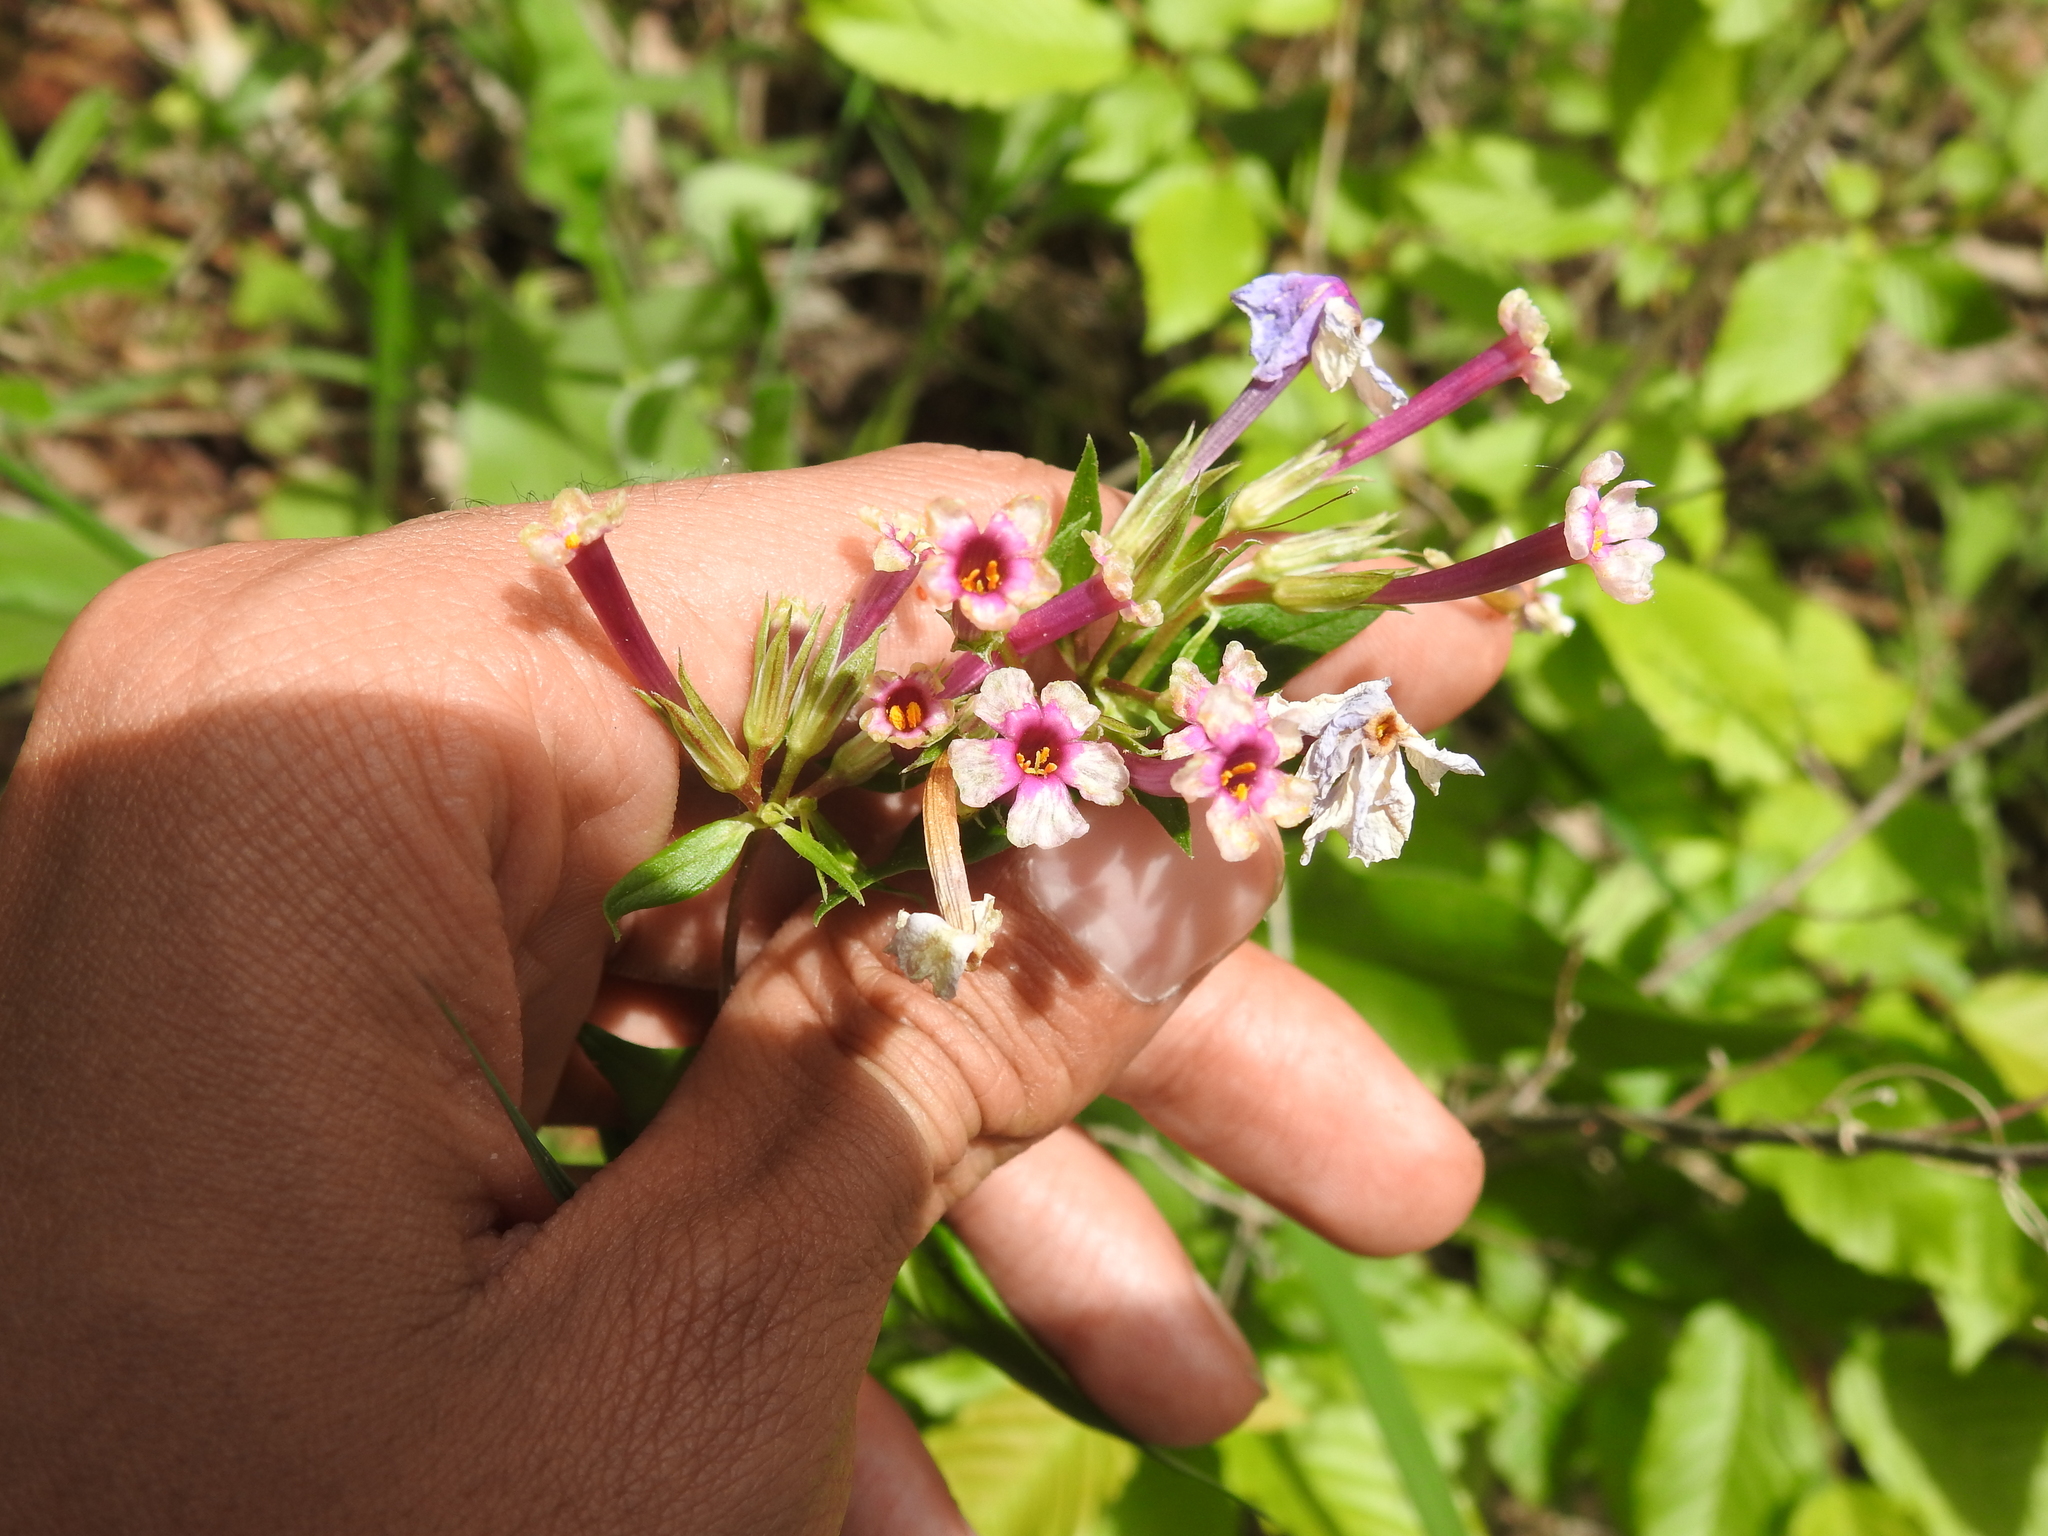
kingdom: Plantae
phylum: Tracheophyta
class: Magnoliopsida
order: Ericales
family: Polemoniaceae
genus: Phlox
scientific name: Phlox glaberrima
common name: Smooth phlox
